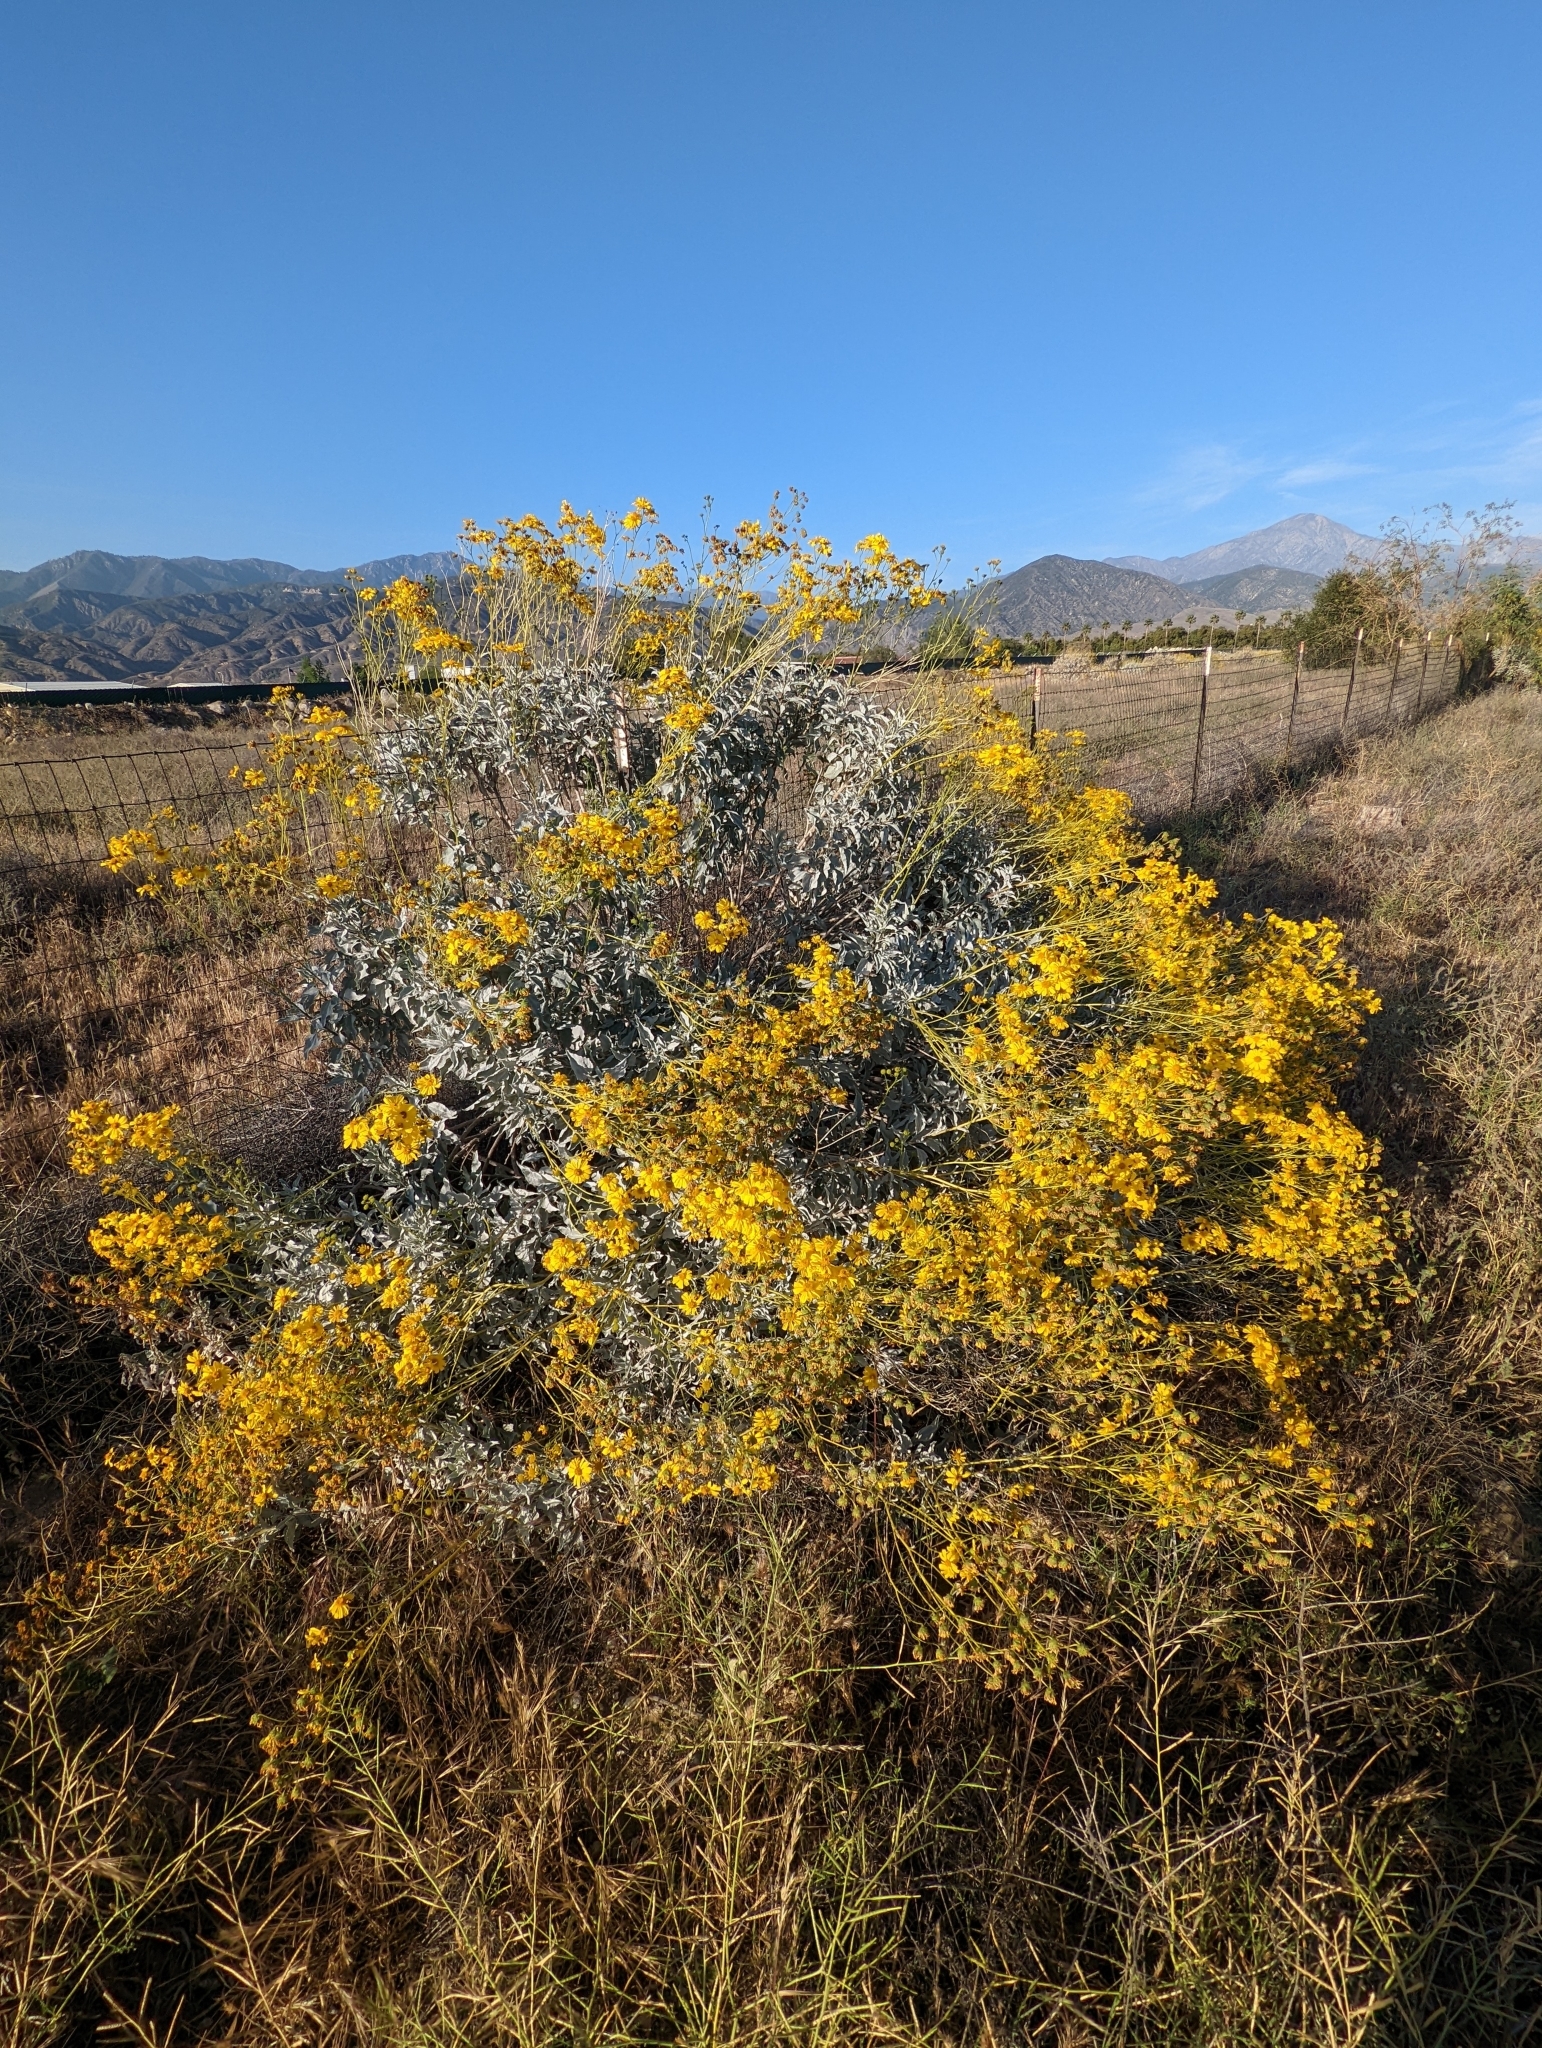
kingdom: Plantae
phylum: Tracheophyta
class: Magnoliopsida
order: Asterales
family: Asteraceae
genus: Encelia
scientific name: Encelia farinosa
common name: Brittlebush
